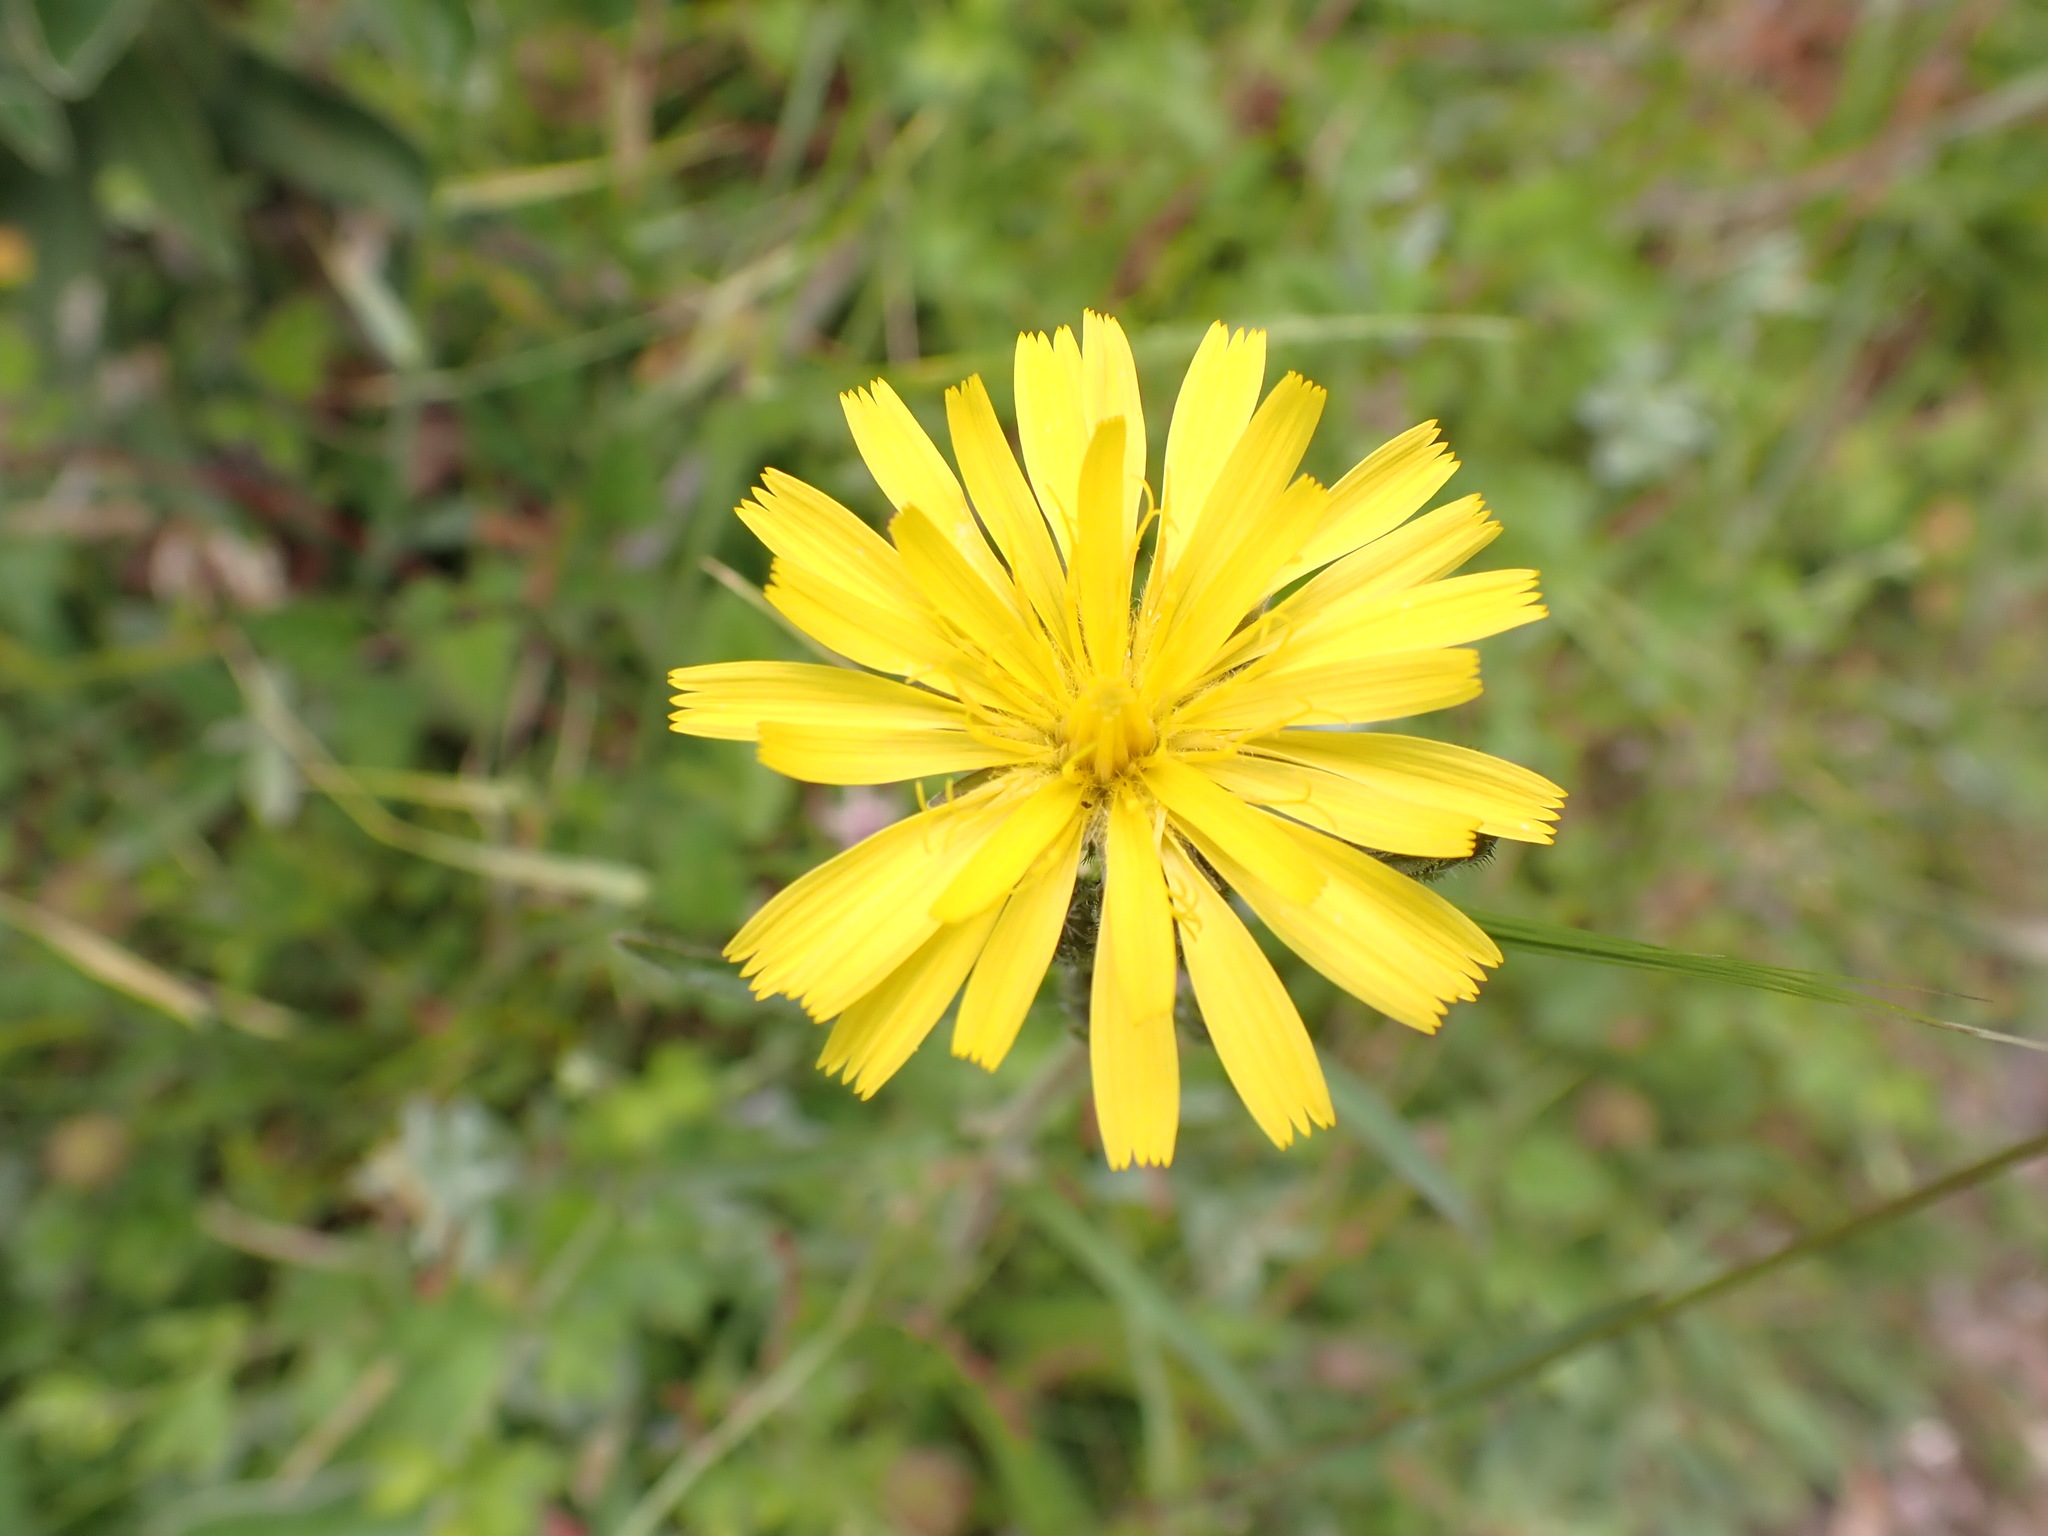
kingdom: Plantae
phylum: Tracheophyta
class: Magnoliopsida
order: Asterales
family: Asteraceae
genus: Picris
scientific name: Picris angustifolia
